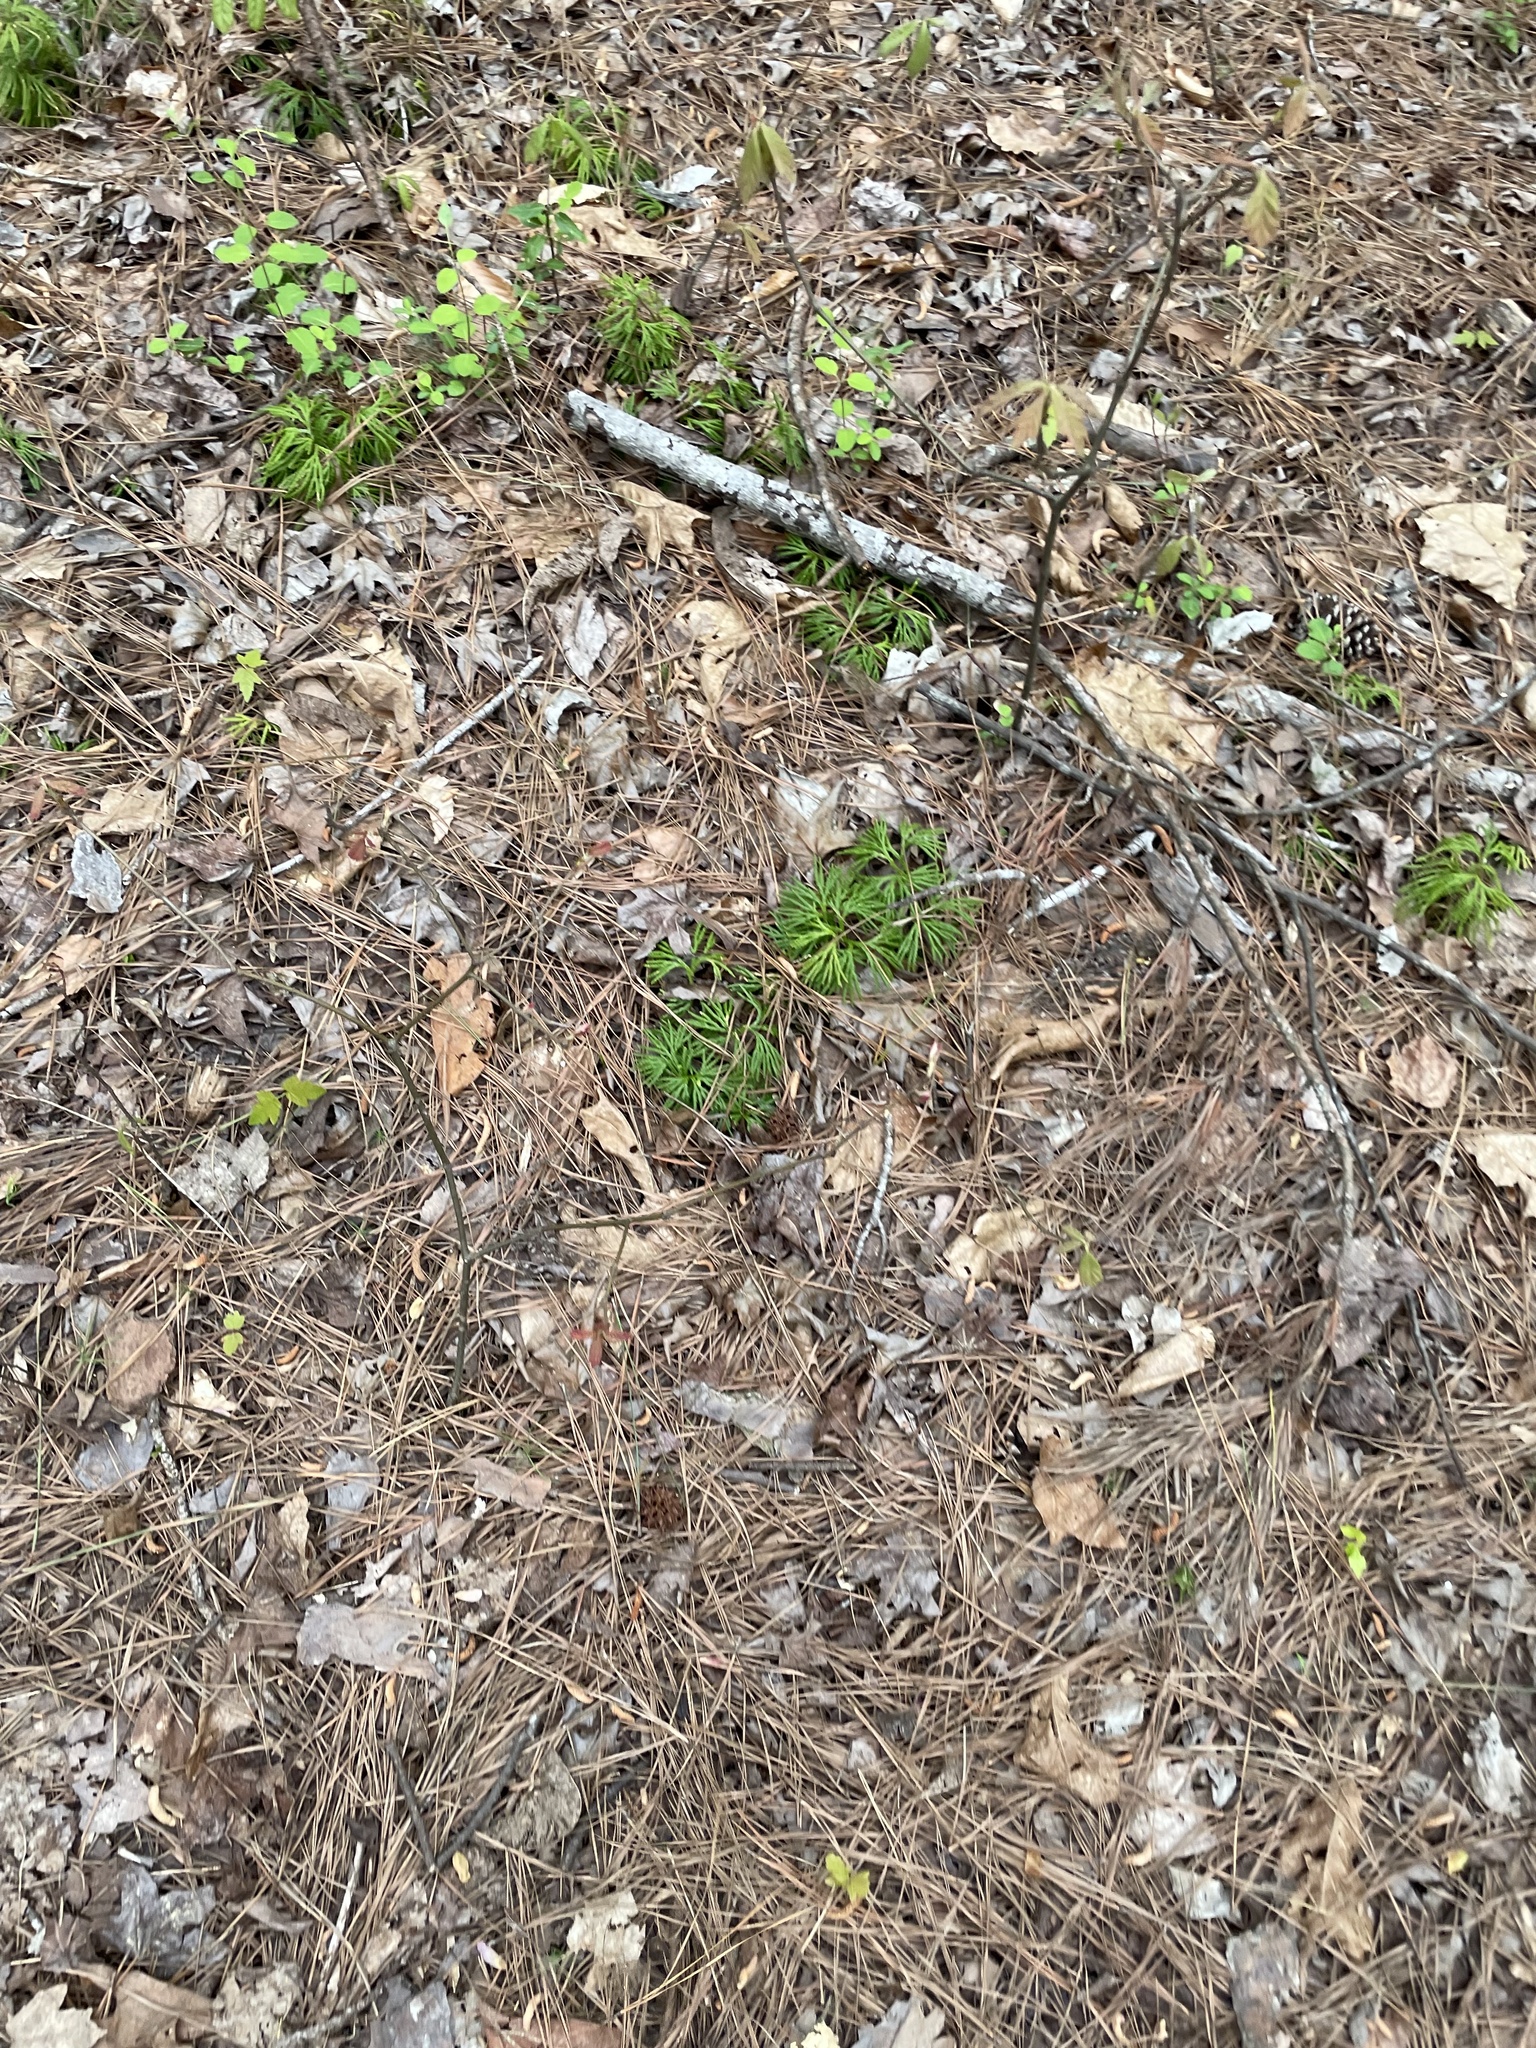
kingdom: Plantae
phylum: Tracheophyta
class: Lycopodiopsida
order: Lycopodiales
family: Lycopodiaceae
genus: Diphasiastrum
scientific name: Diphasiastrum digitatum
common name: Southern running-pine
